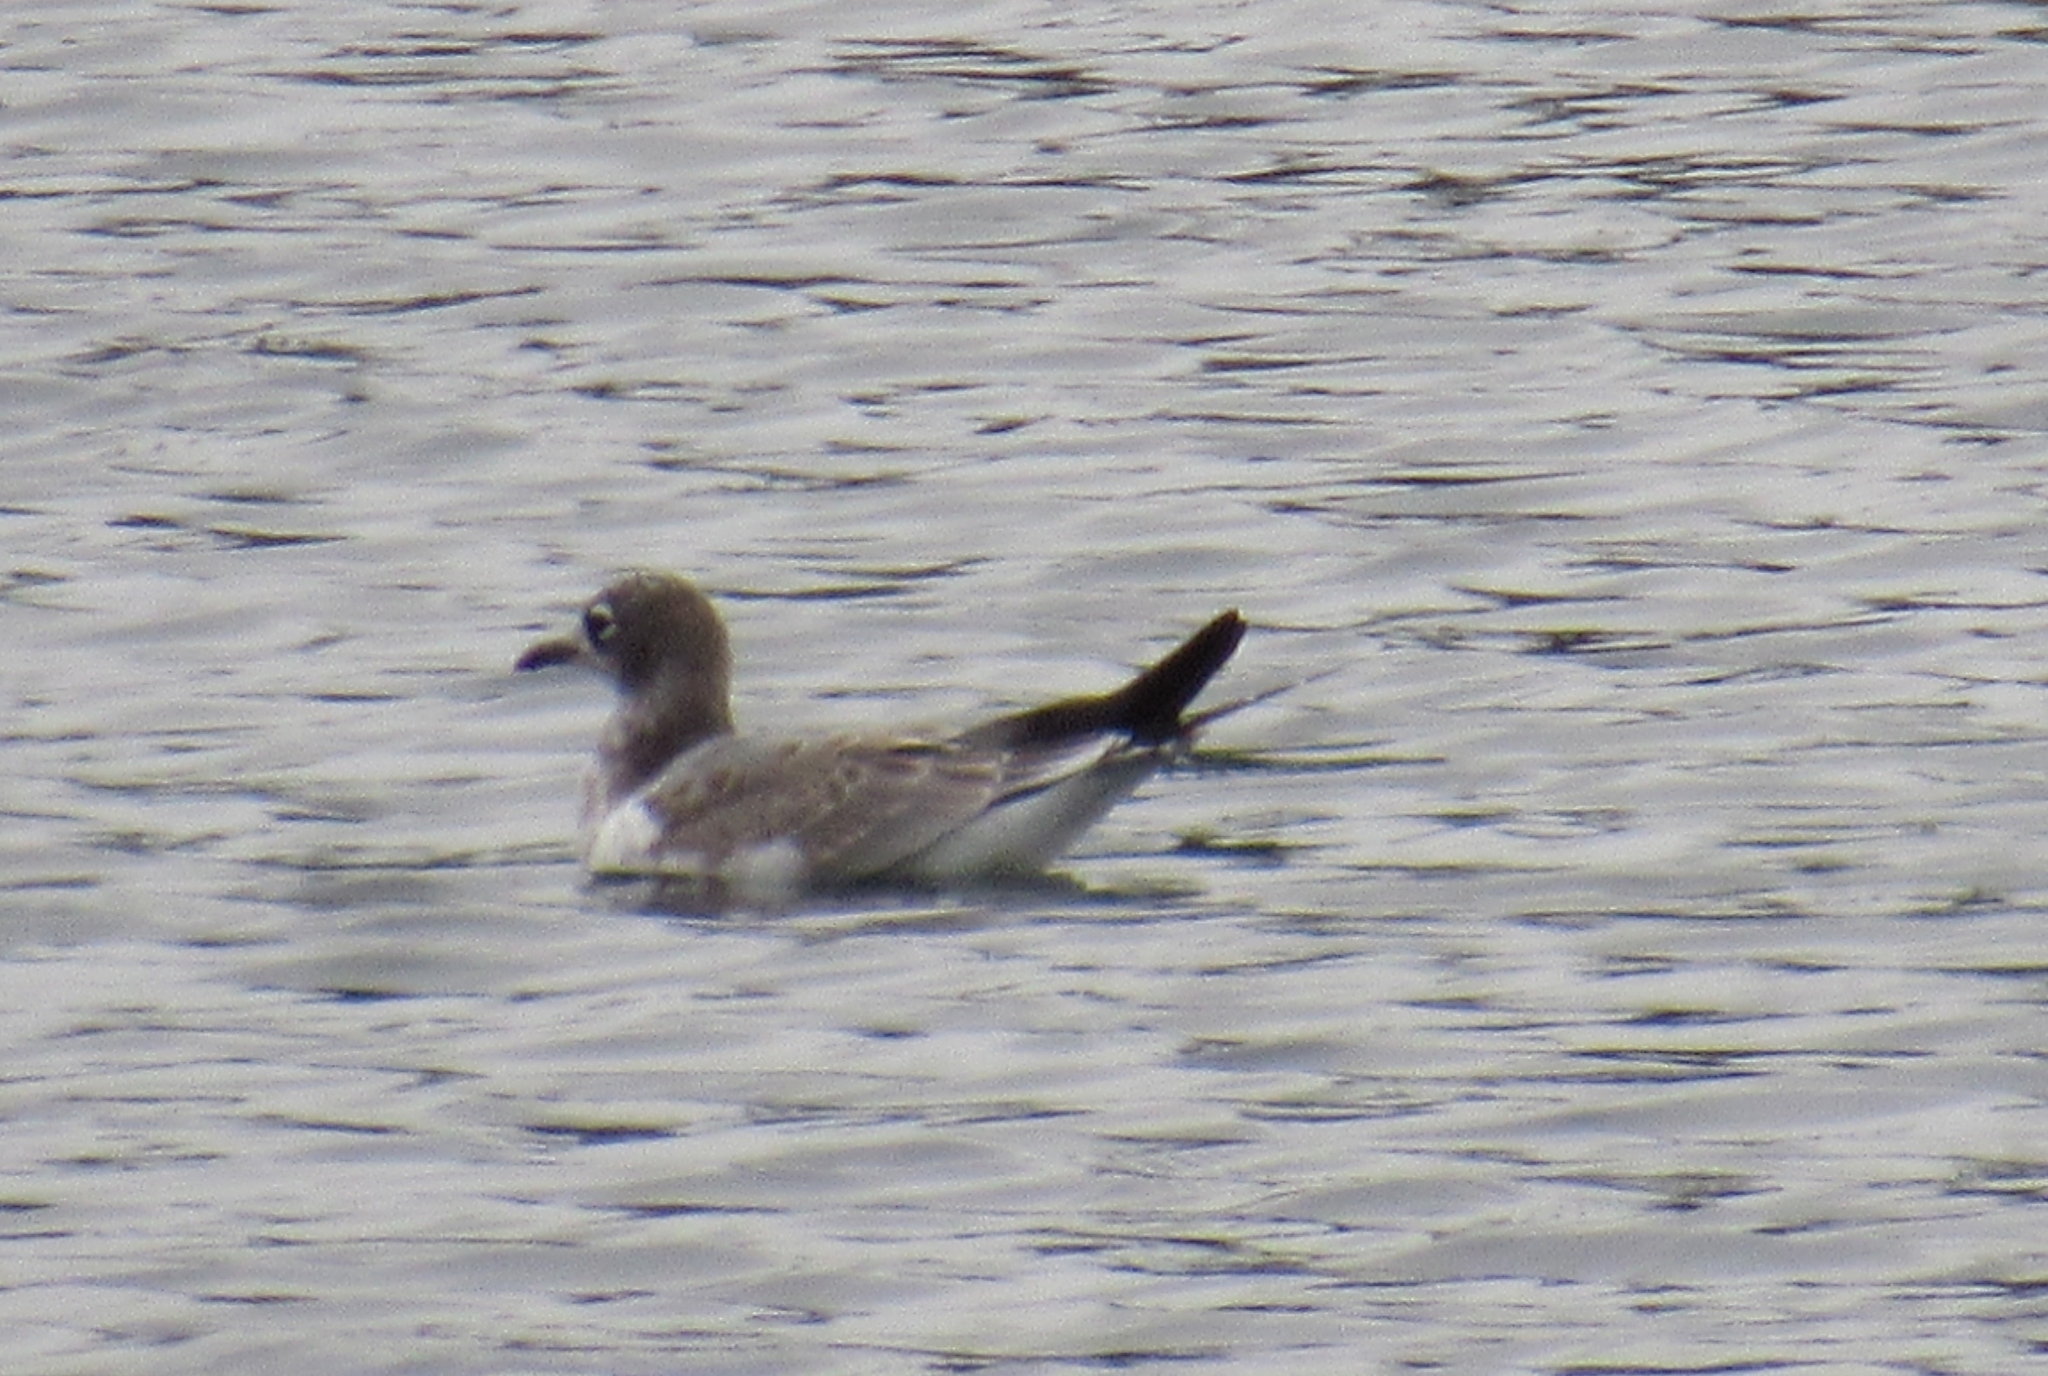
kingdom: Animalia
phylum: Chordata
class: Aves
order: Charadriiformes
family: Laridae
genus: Leucophaeus
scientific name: Leucophaeus pipixcan
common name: Franklin's gull
